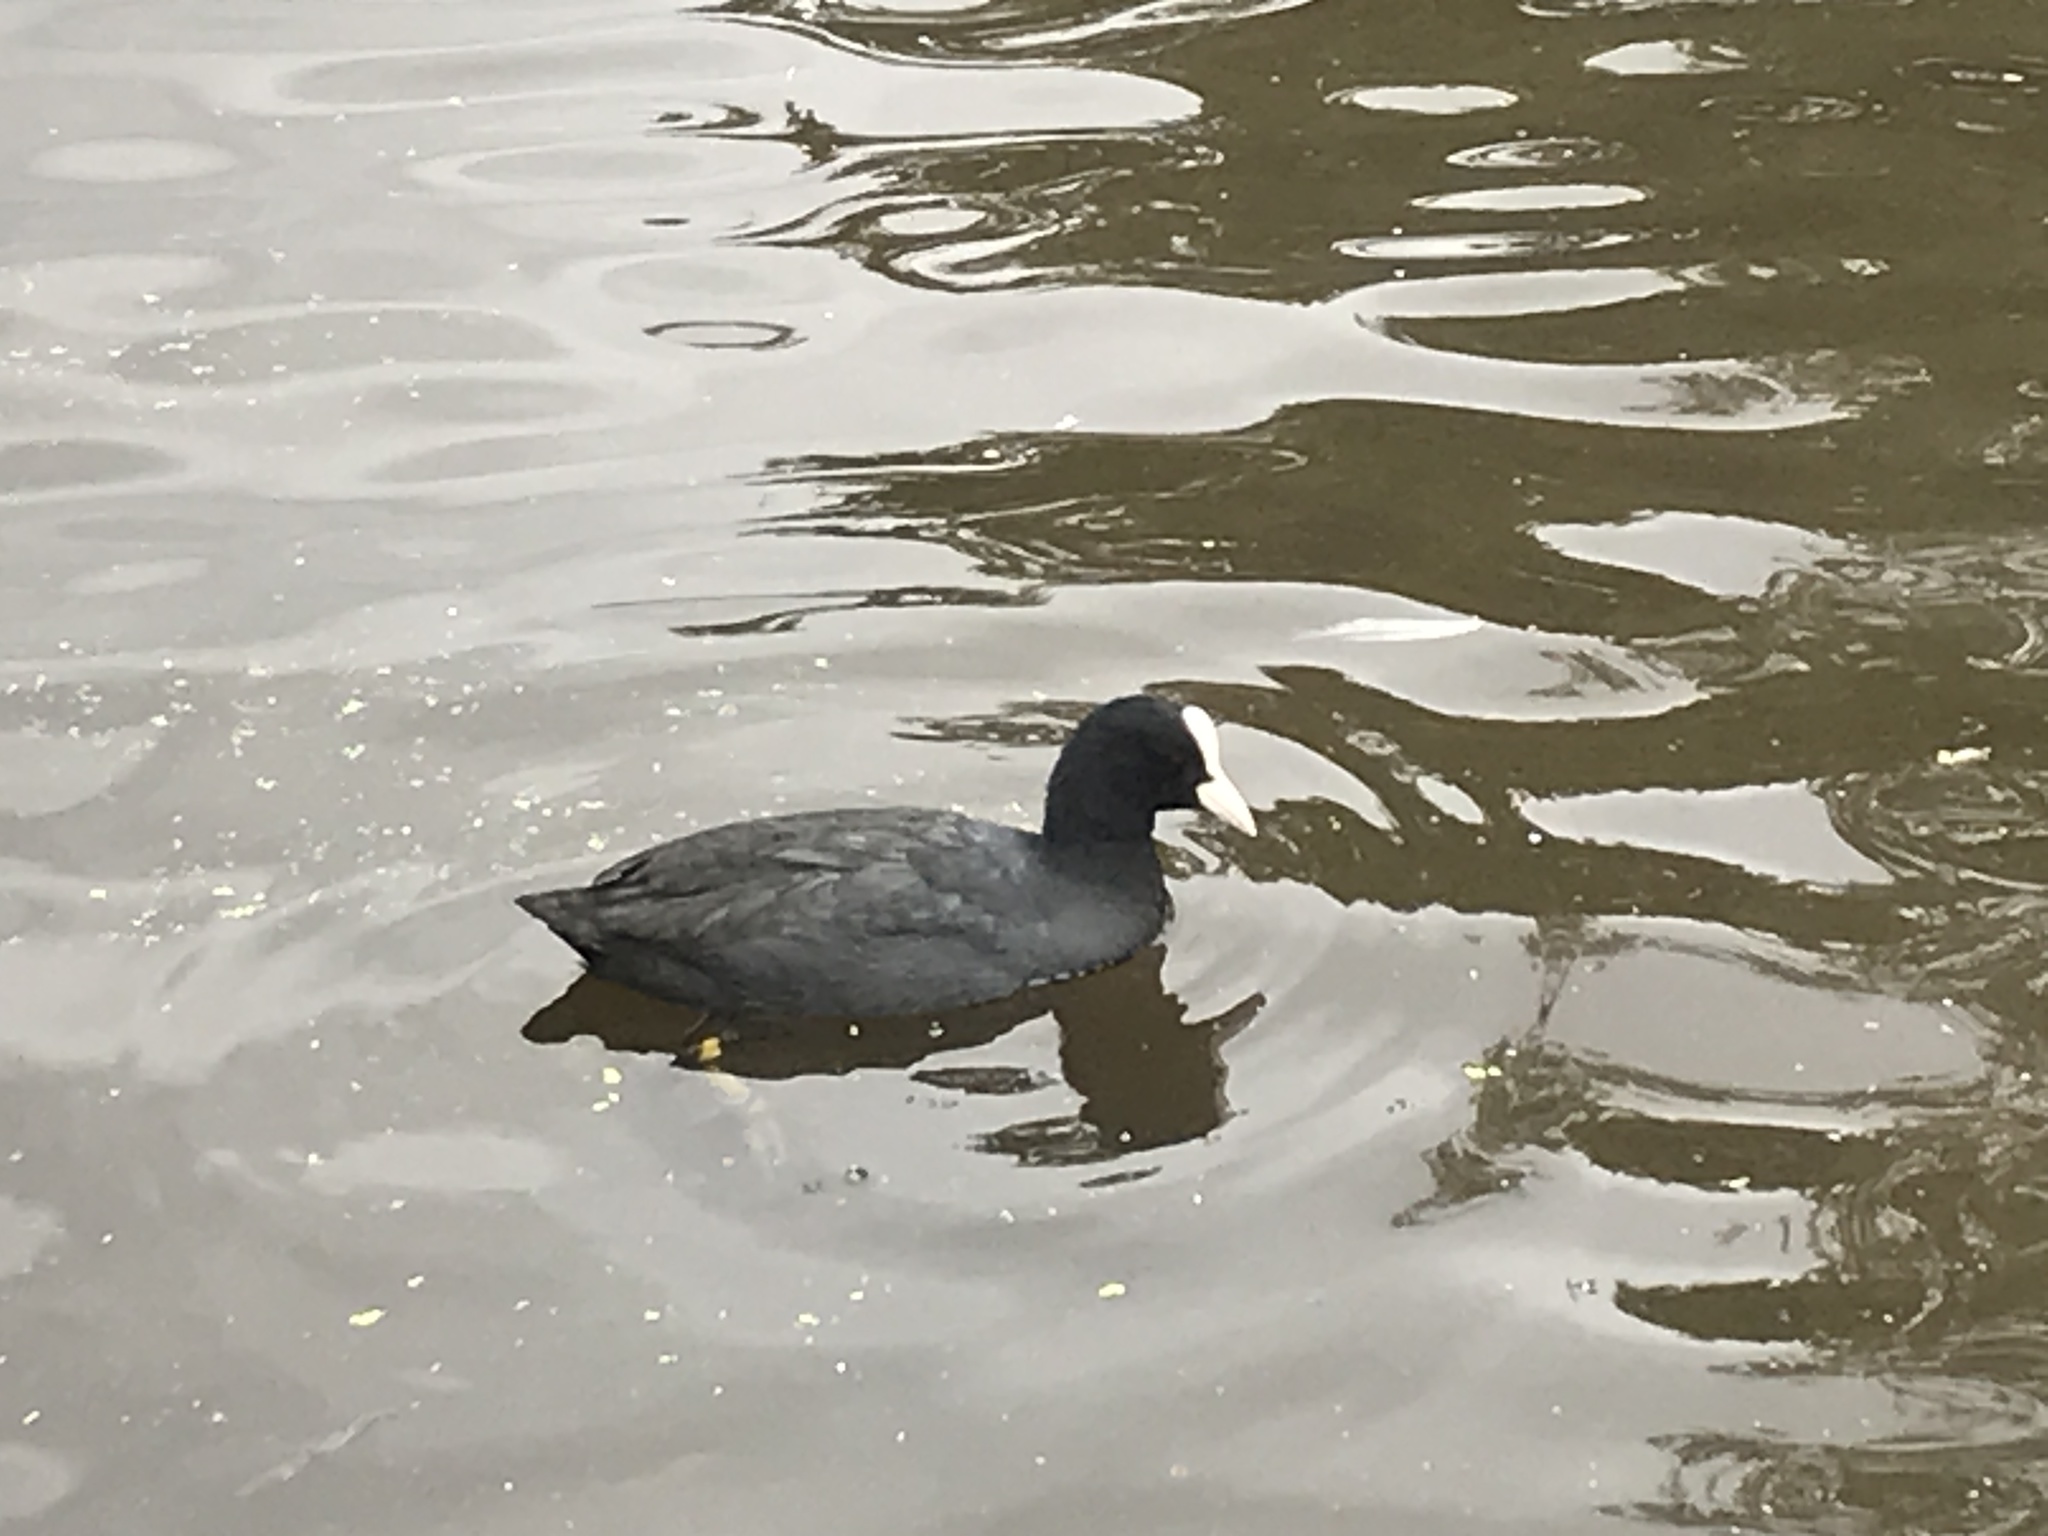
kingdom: Animalia
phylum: Chordata
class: Aves
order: Gruiformes
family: Rallidae
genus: Fulica
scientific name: Fulica atra
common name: Eurasian coot
